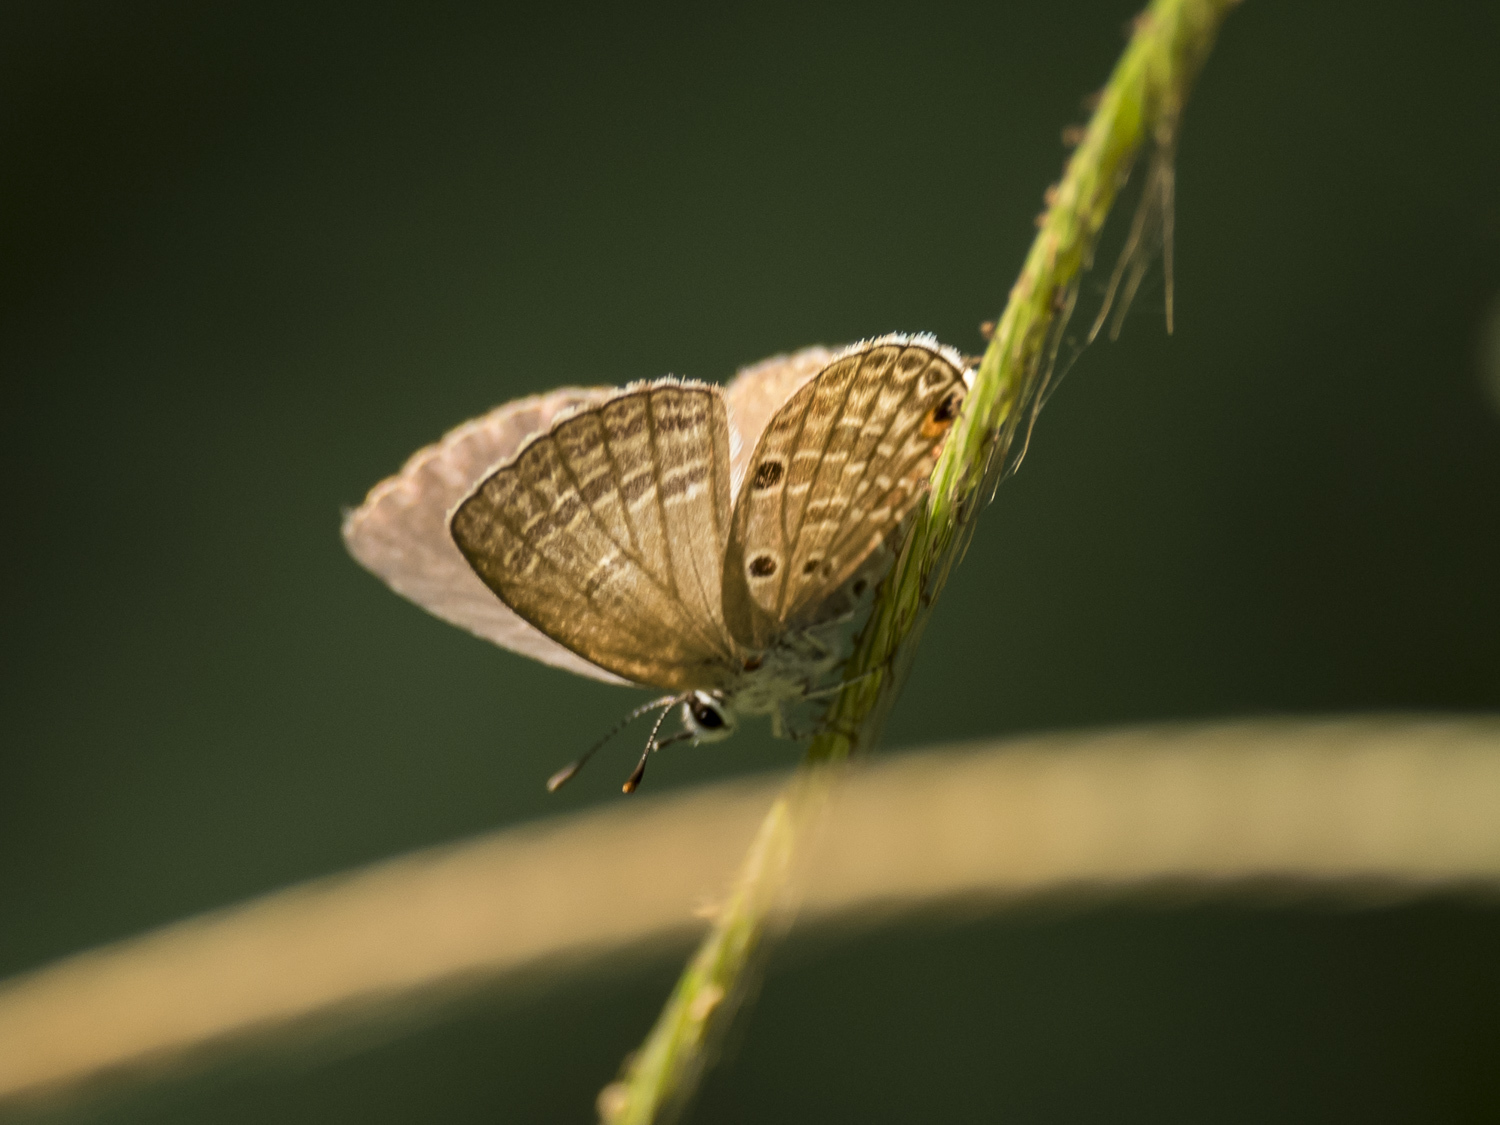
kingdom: Animalia
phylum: Arthropoda
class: Insecta
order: Lepidoptera
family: Lycaenidae
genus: Luthrodes
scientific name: Luthrodes pandava
